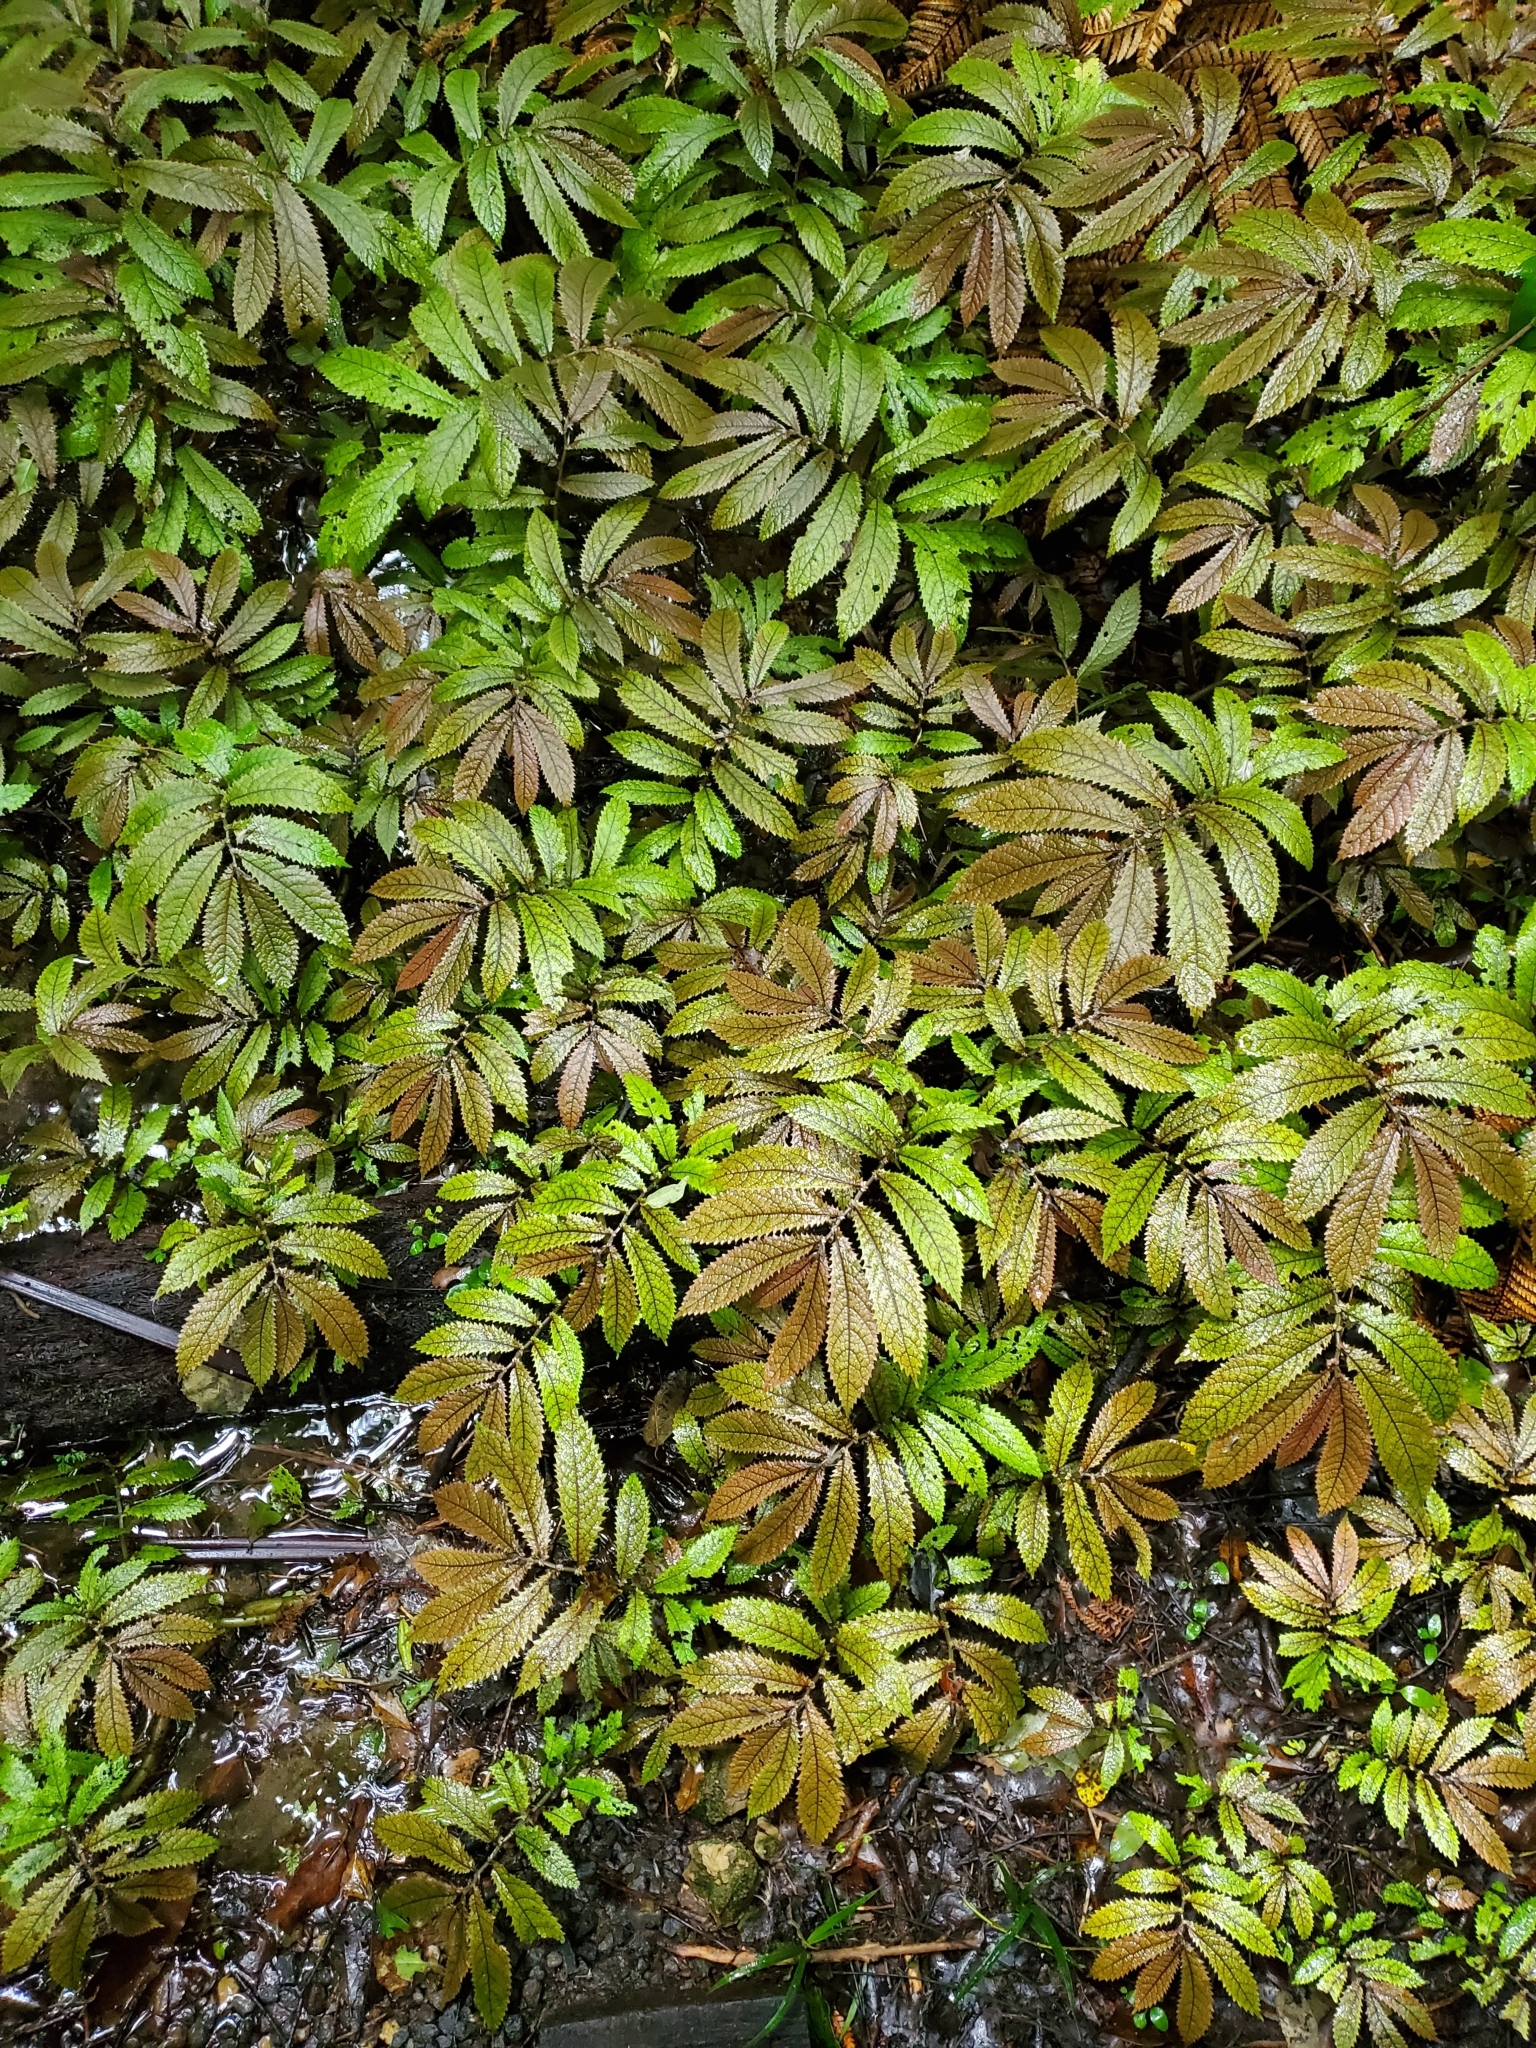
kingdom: Plantae
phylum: Tracheophyta
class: Magnoliopsida
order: Rosales
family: Urticaceae
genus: Elatostema
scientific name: Elatostema rugosum
